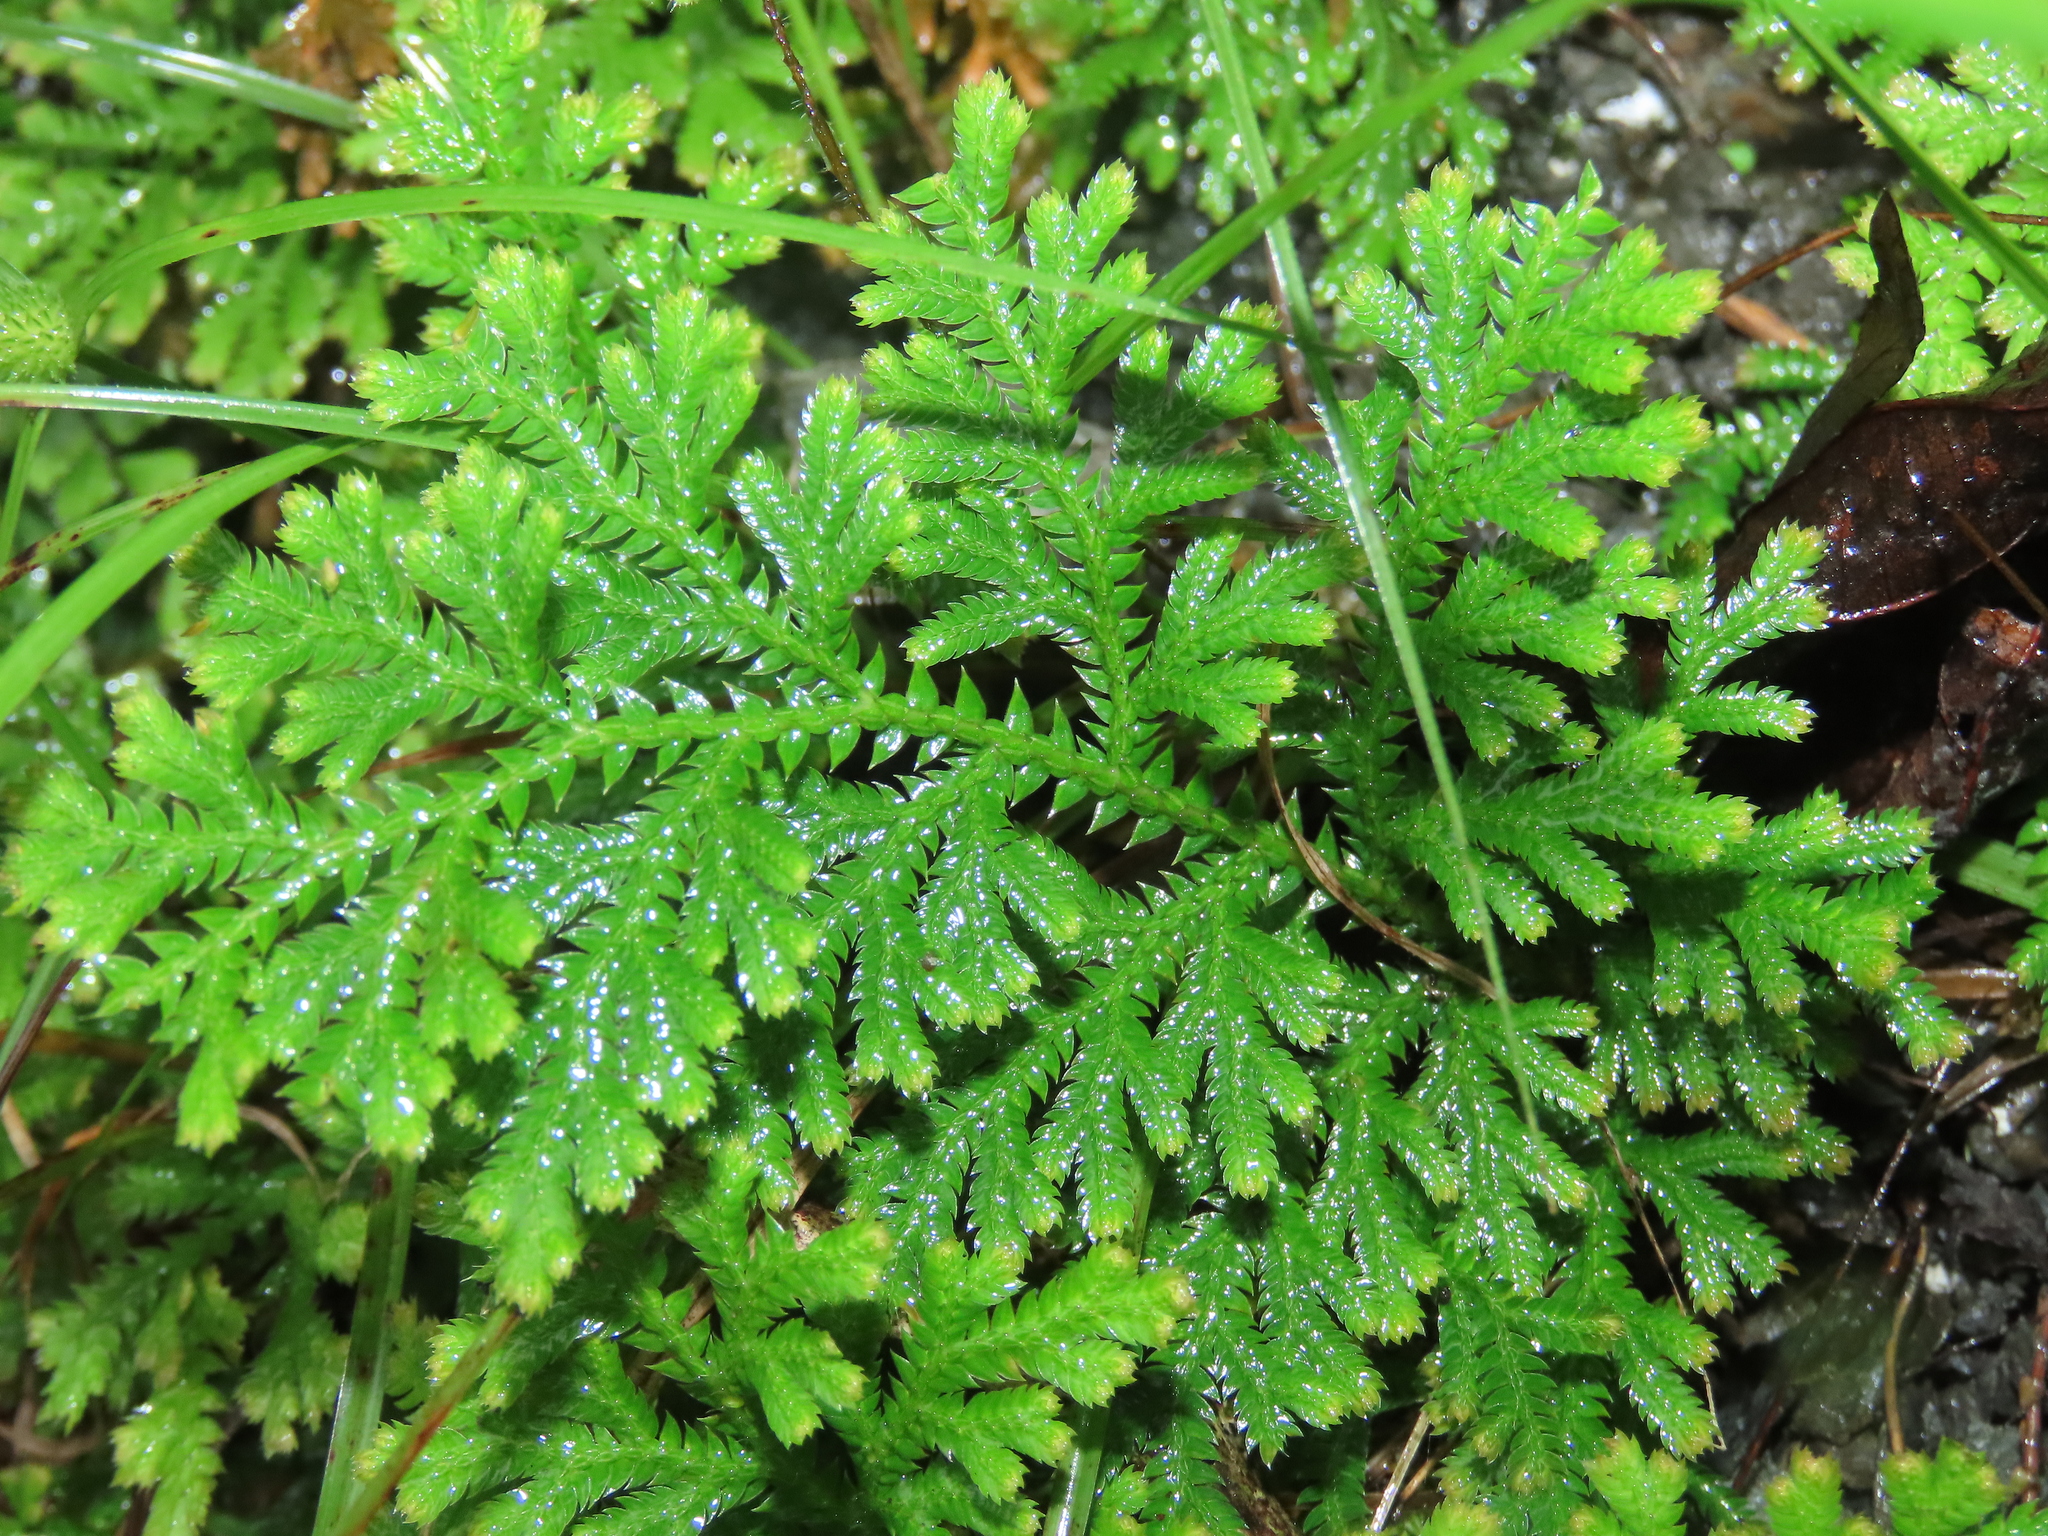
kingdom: Plantae
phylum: Tracheophyta
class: Lycopodiopsida
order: Selaginellales
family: Selaginellaceae
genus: Selaginella
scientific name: Selaginella moellendorffii
